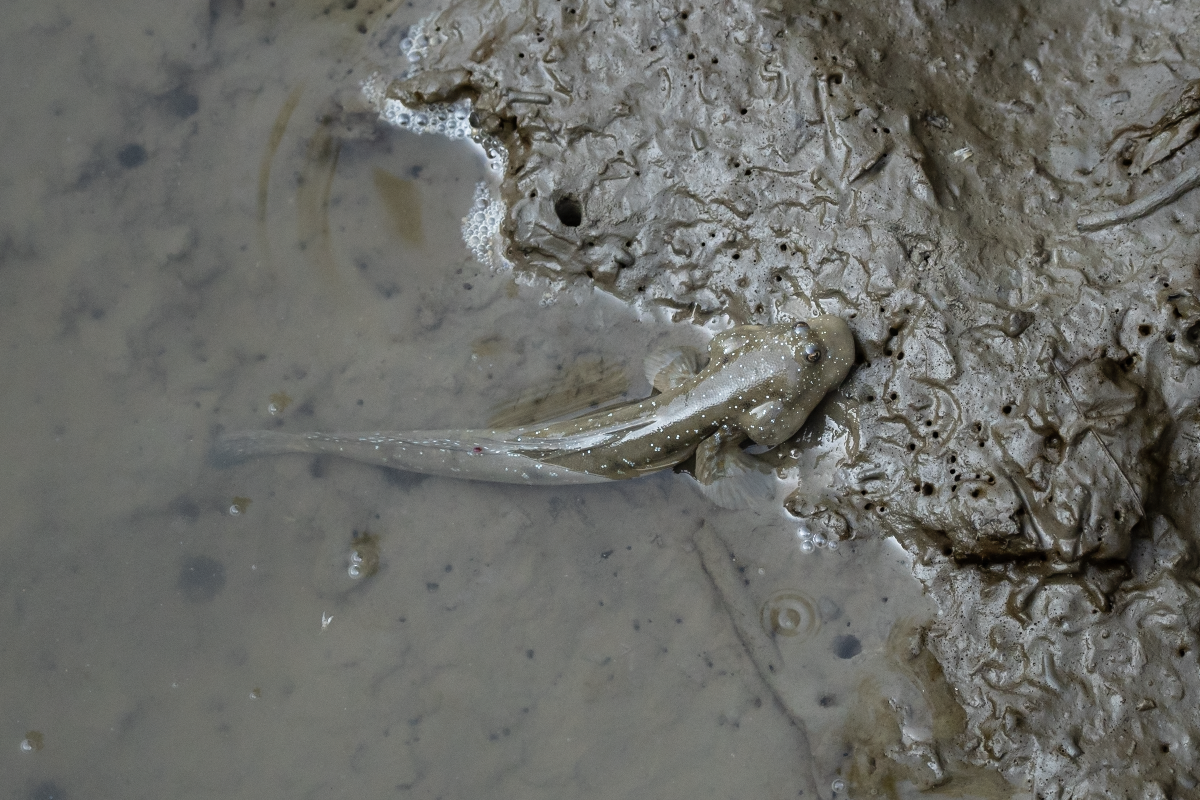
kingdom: Animalia
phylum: Chordata
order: Perciformes
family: Gobiidae
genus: Boleophthalmus
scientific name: Boleophthalmus pectinirostris
